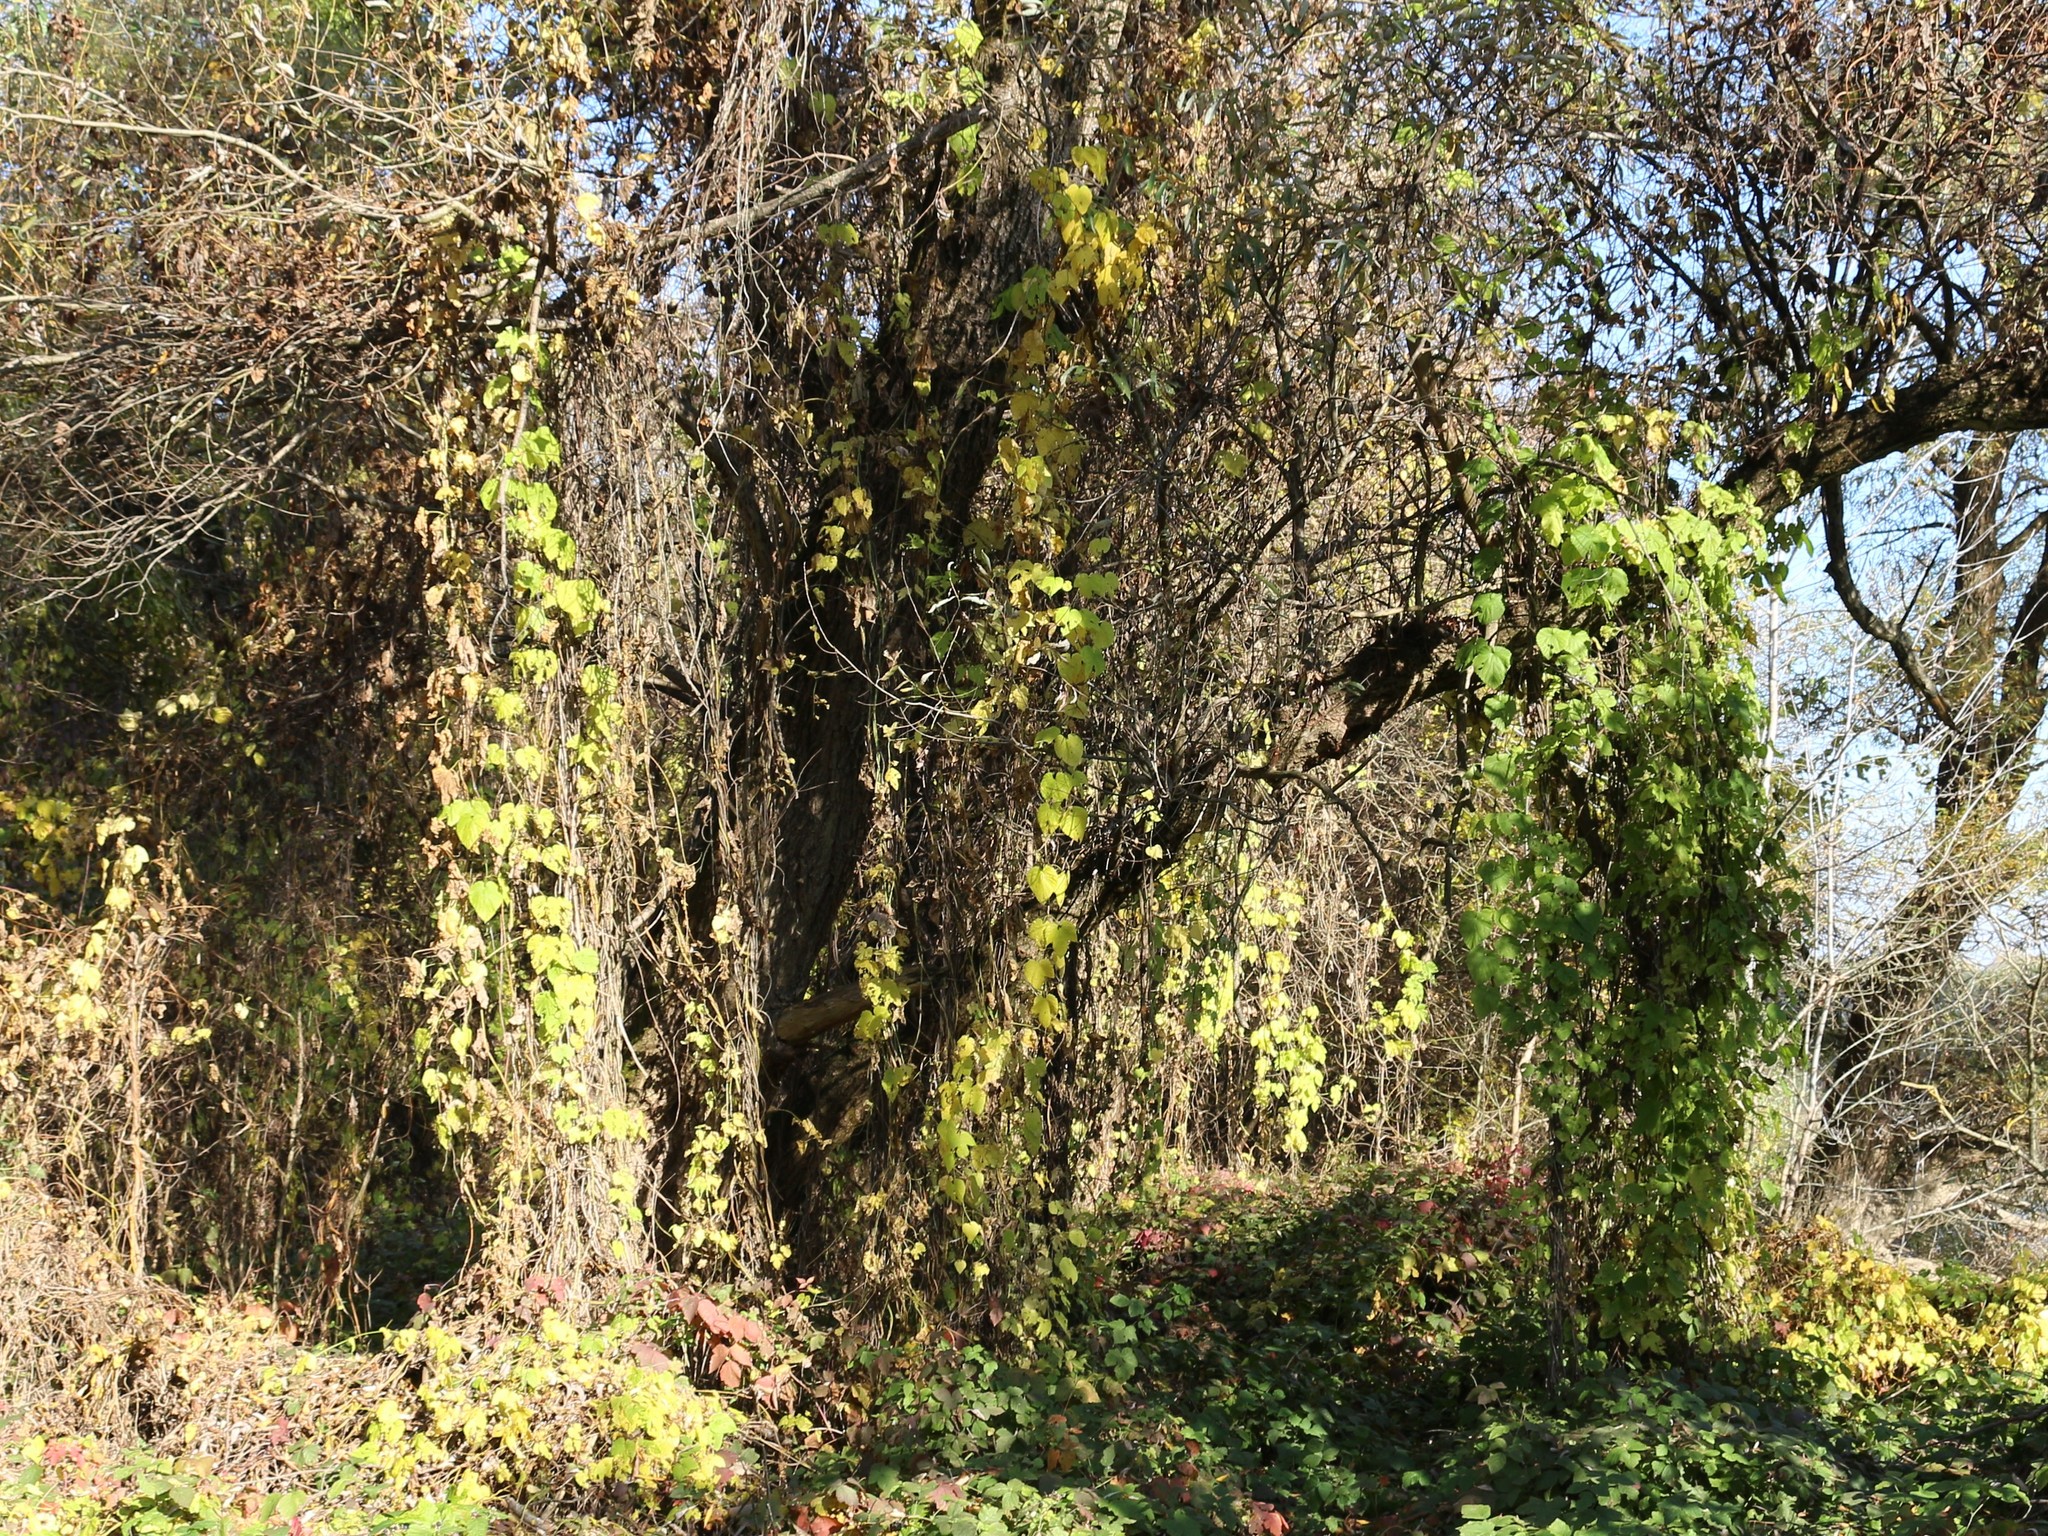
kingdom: Plantae
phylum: Tracheophyta
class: Magnoliopsida
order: Rosales
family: Cannabaceae
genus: Humulus
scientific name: Humulus lupulus
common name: Hop
